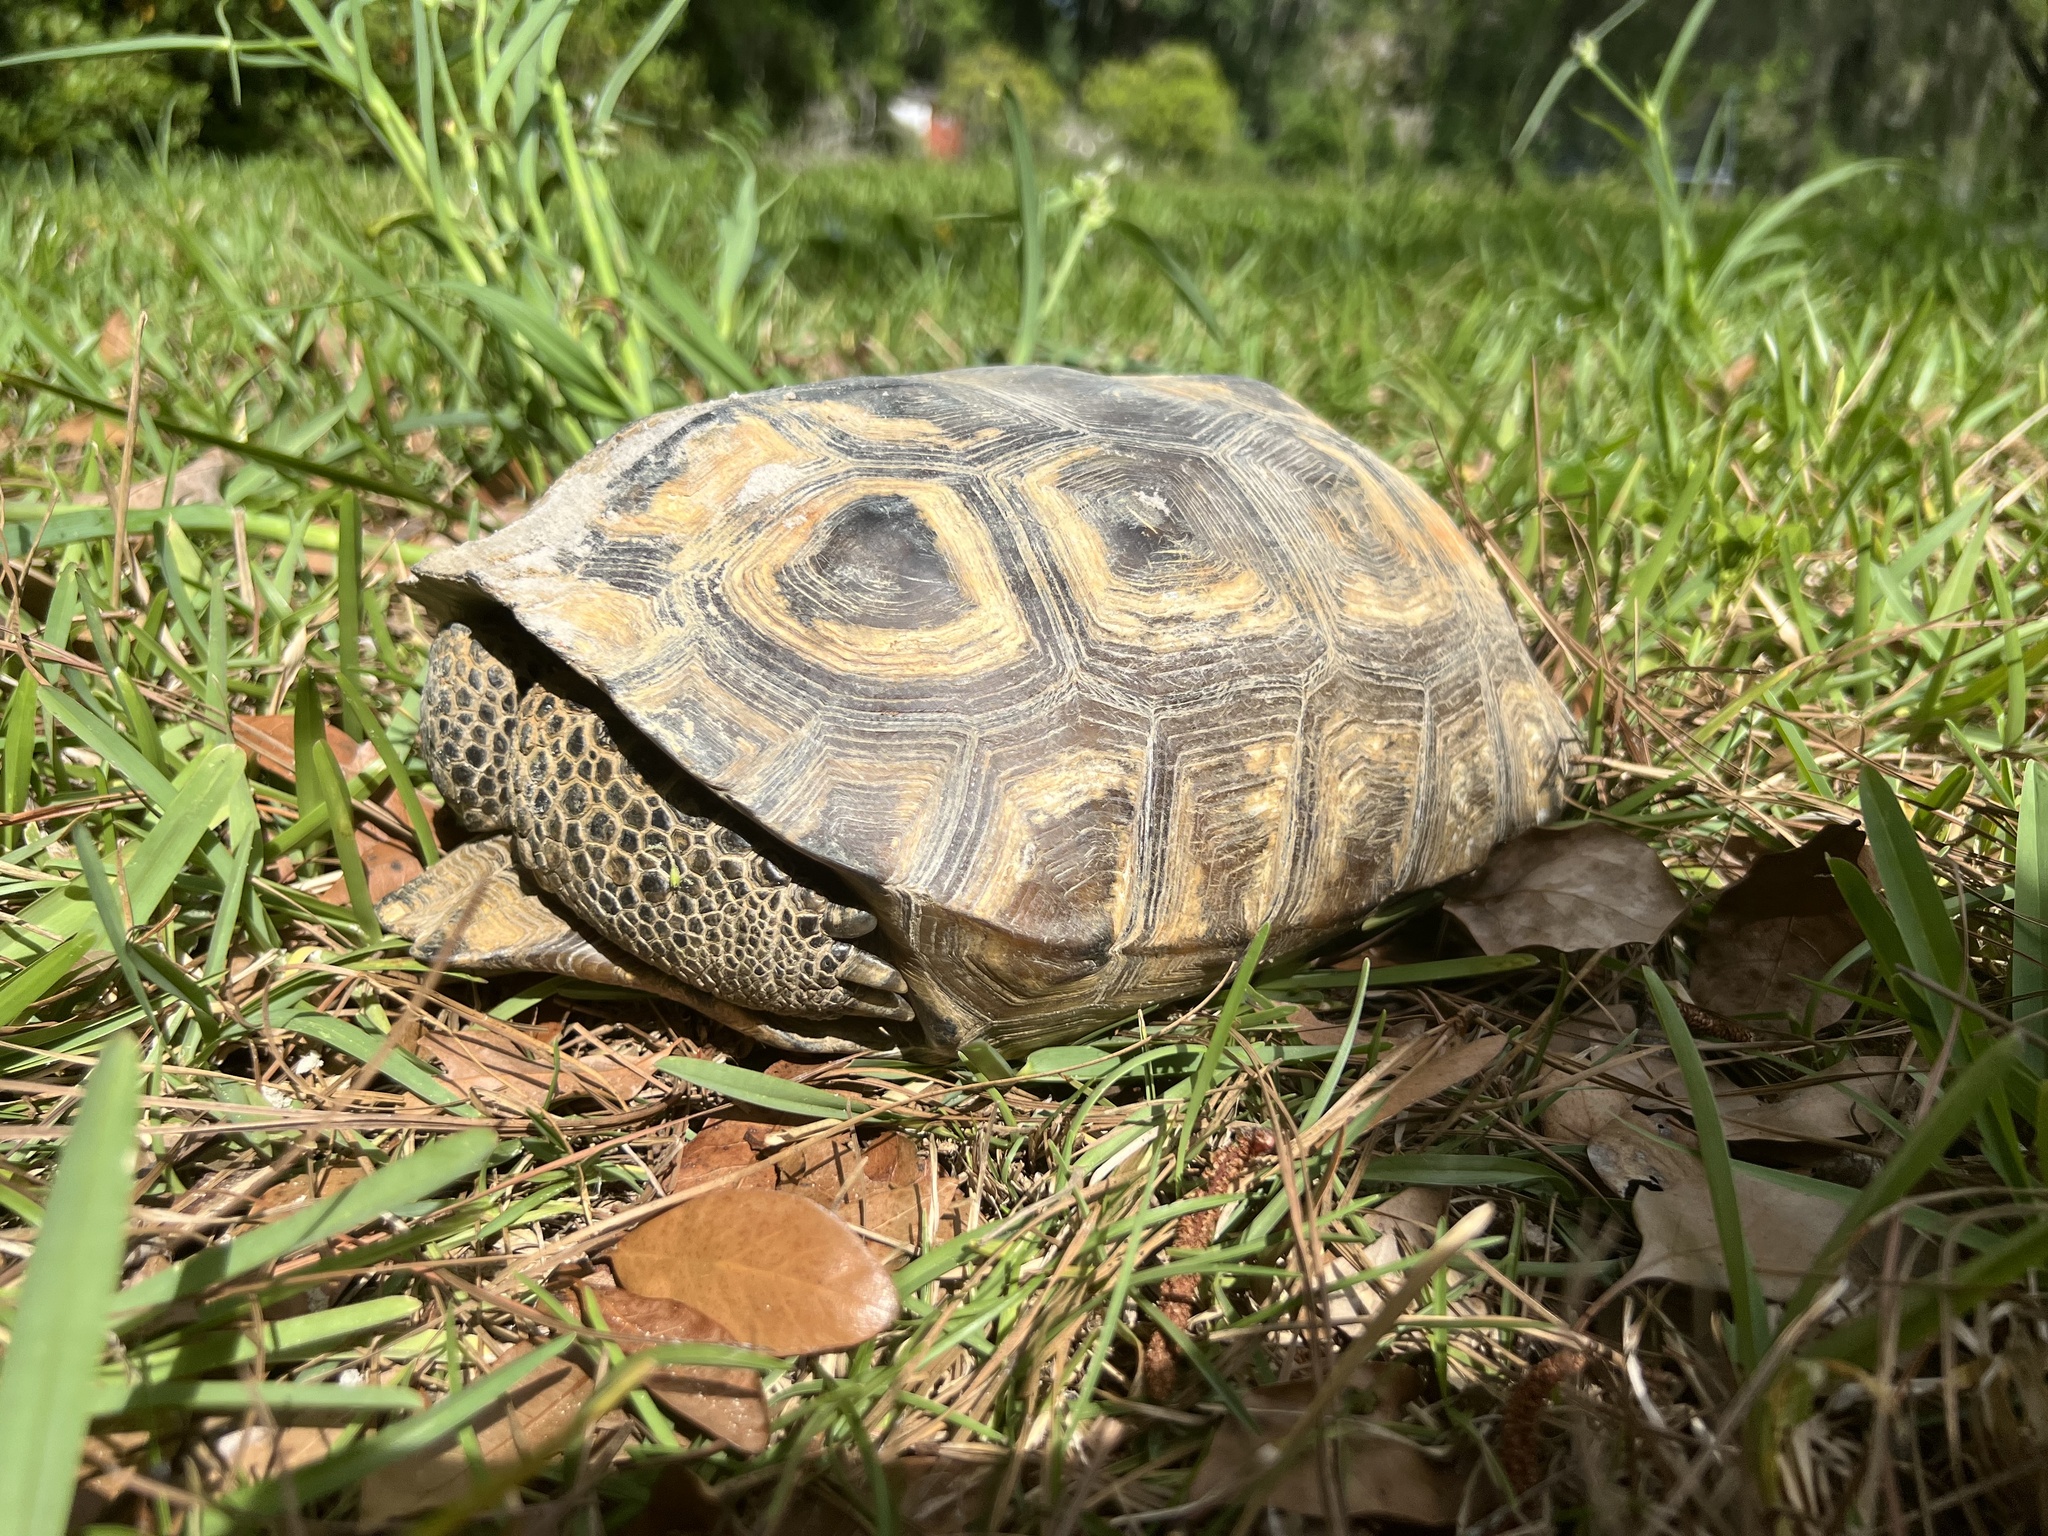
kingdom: Animalia
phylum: Chordata
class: Testudines
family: Testudinidae
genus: Gopherus
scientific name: Gopherus polyphemus
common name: Florida gopher tortoise
